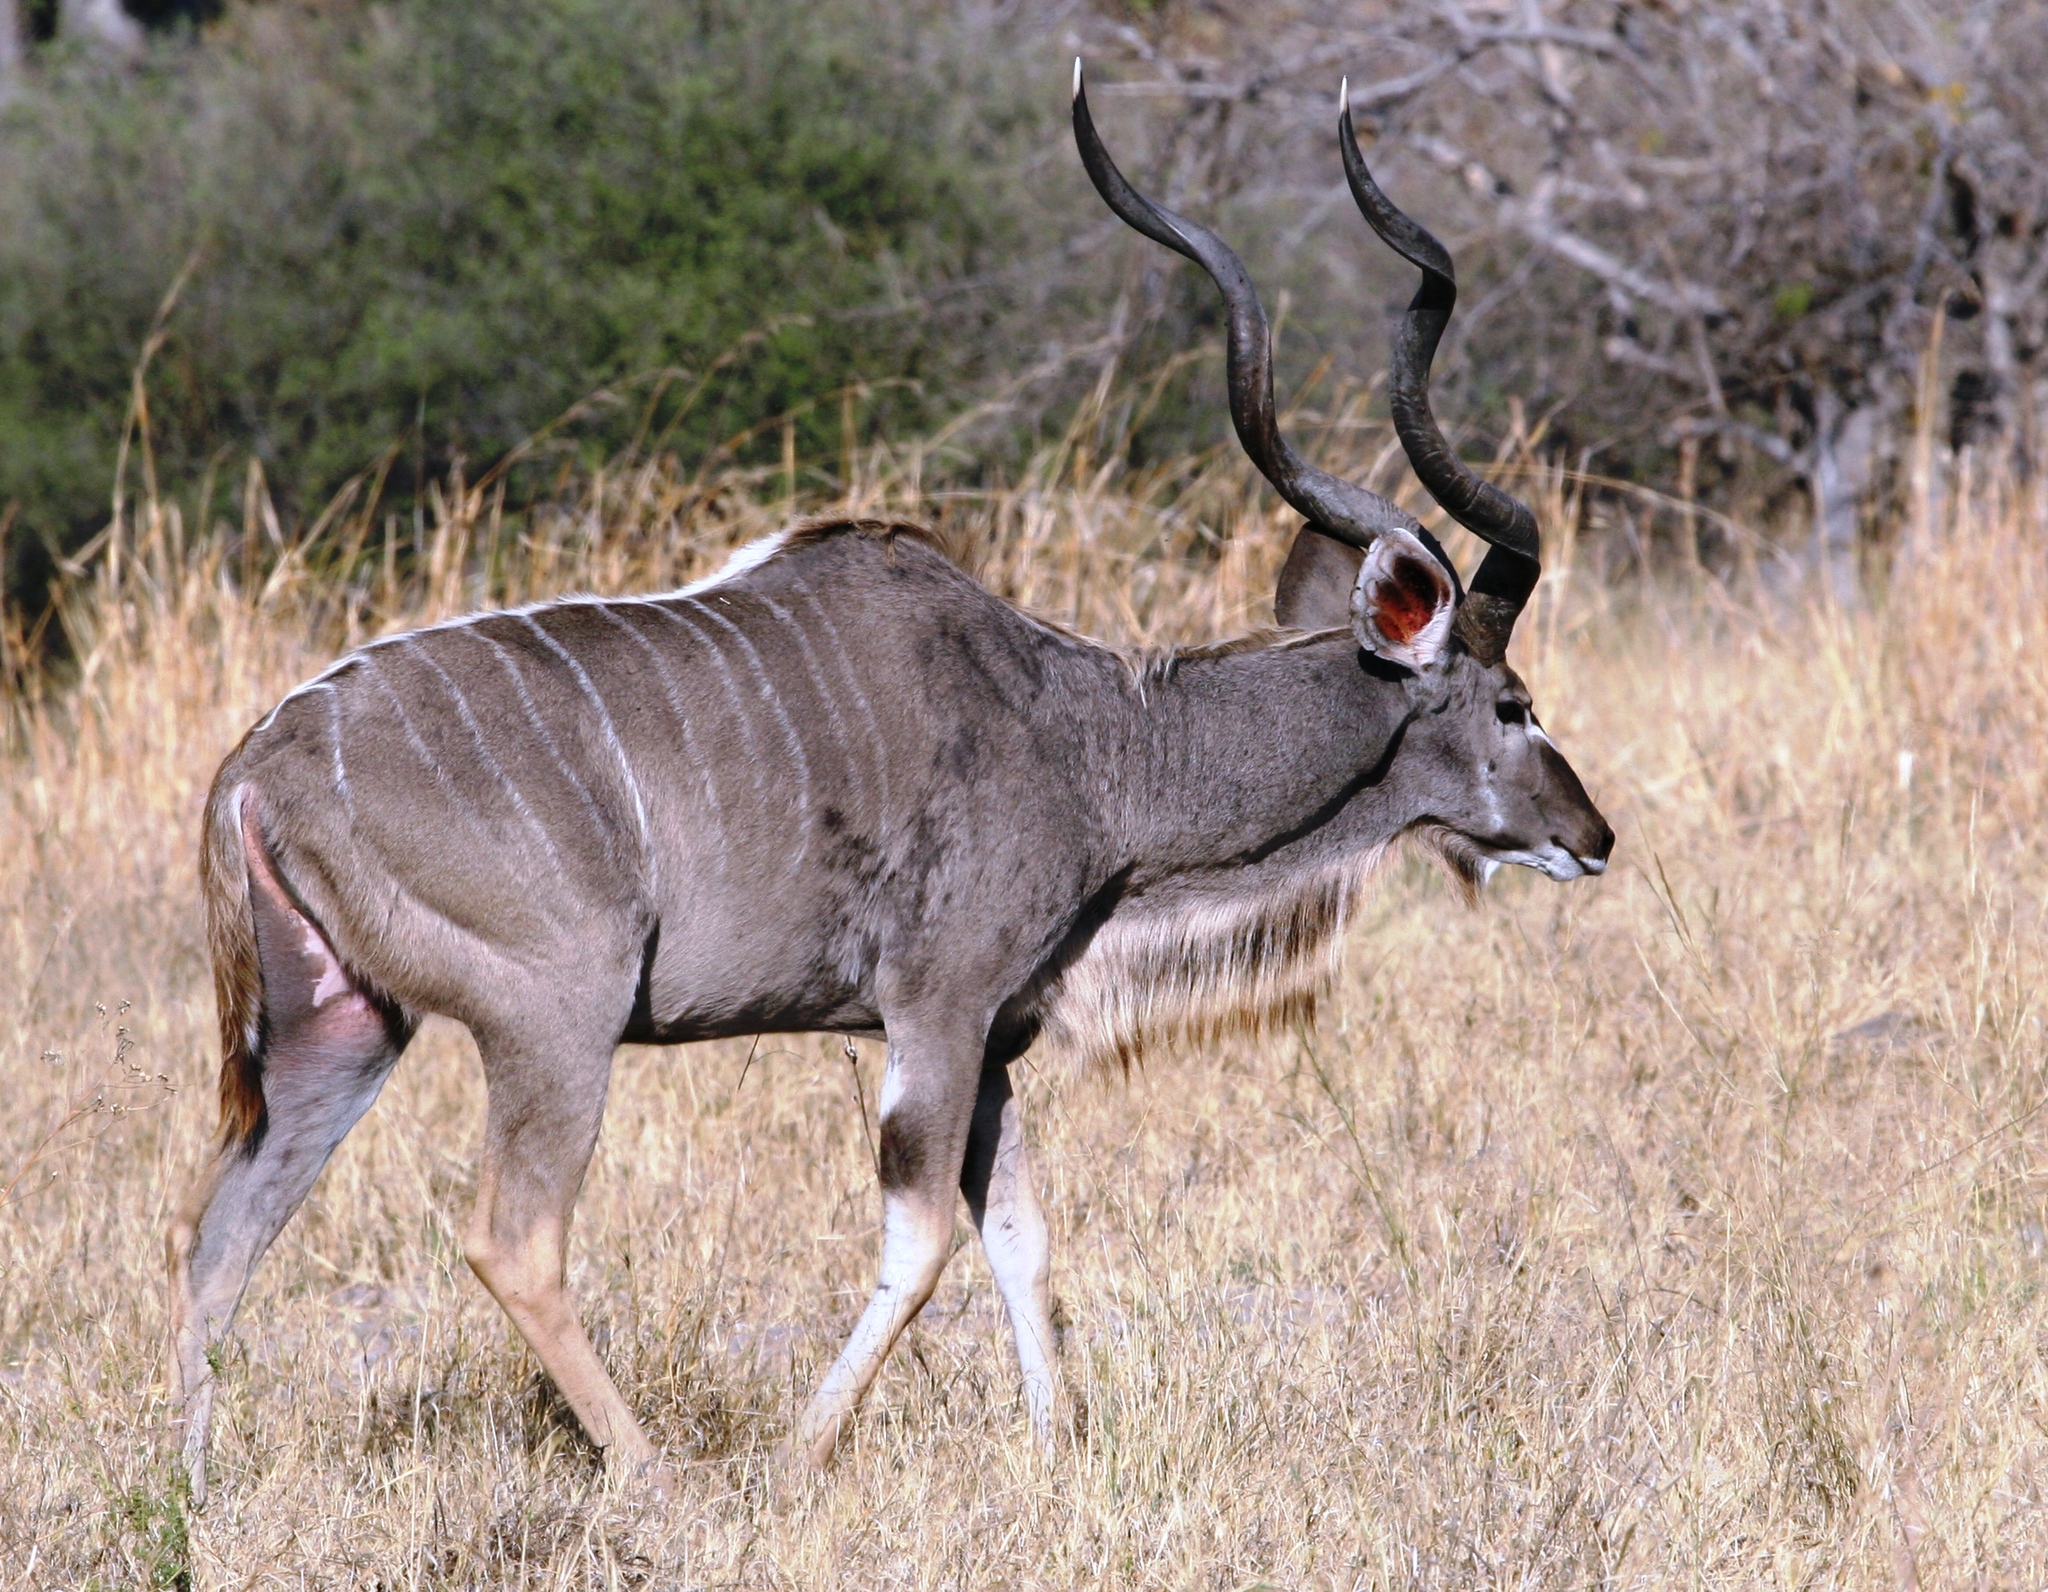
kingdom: Animalia
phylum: Chordata
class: Mammalia
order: Artiodactyla
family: Bovidae
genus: Tragelaphus
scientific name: Tragelaphus strepsiceros
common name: Greater kudu
